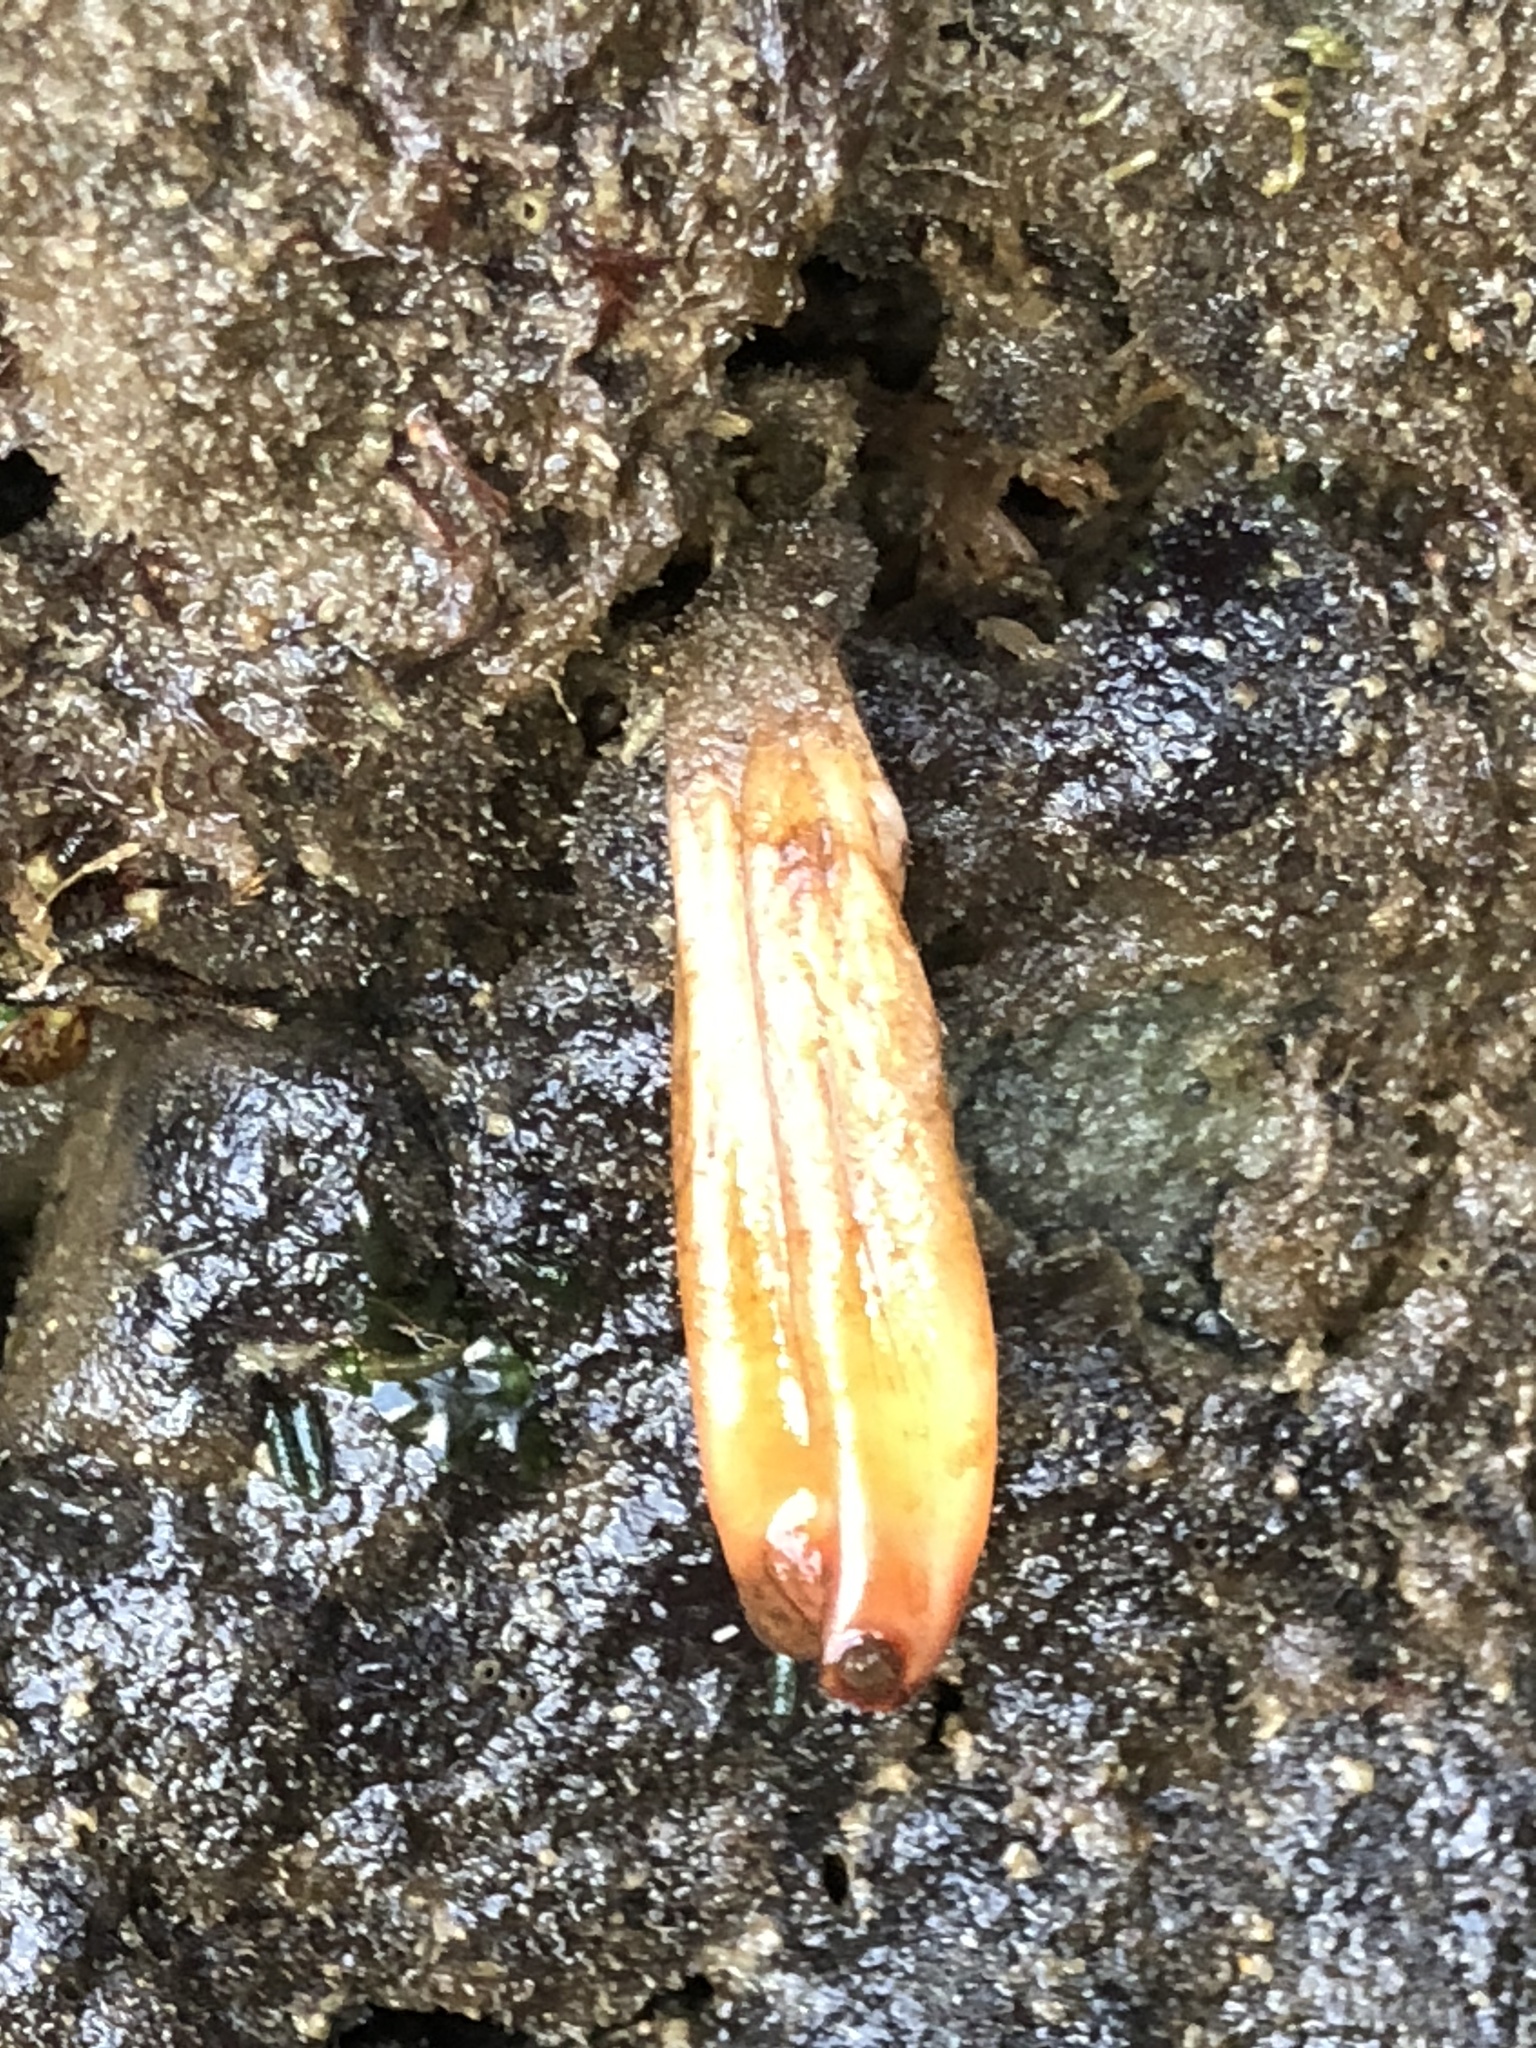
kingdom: Animalia
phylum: Chordata
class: Ascidiacea
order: Stolidobranchia
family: Styelidae
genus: Styela
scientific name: Styela montereyensis
